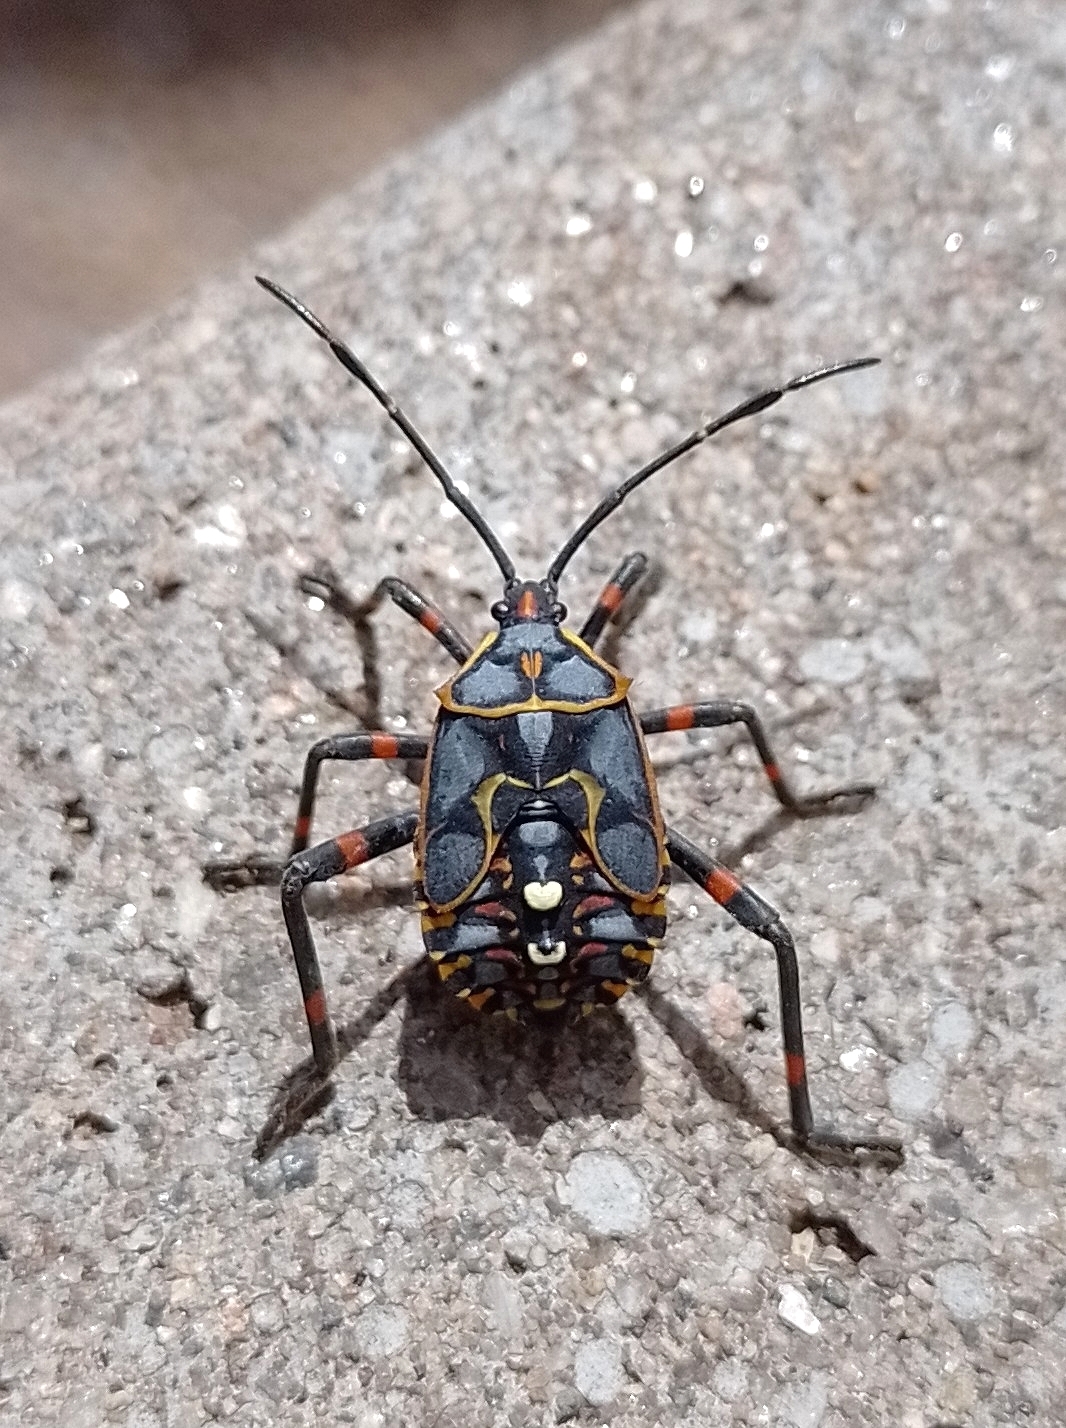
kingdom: Animalia
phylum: Arthropoda
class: Insecta
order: Hemiptera
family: Coreidae
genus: Pachylis
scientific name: Pachylis argentinus
